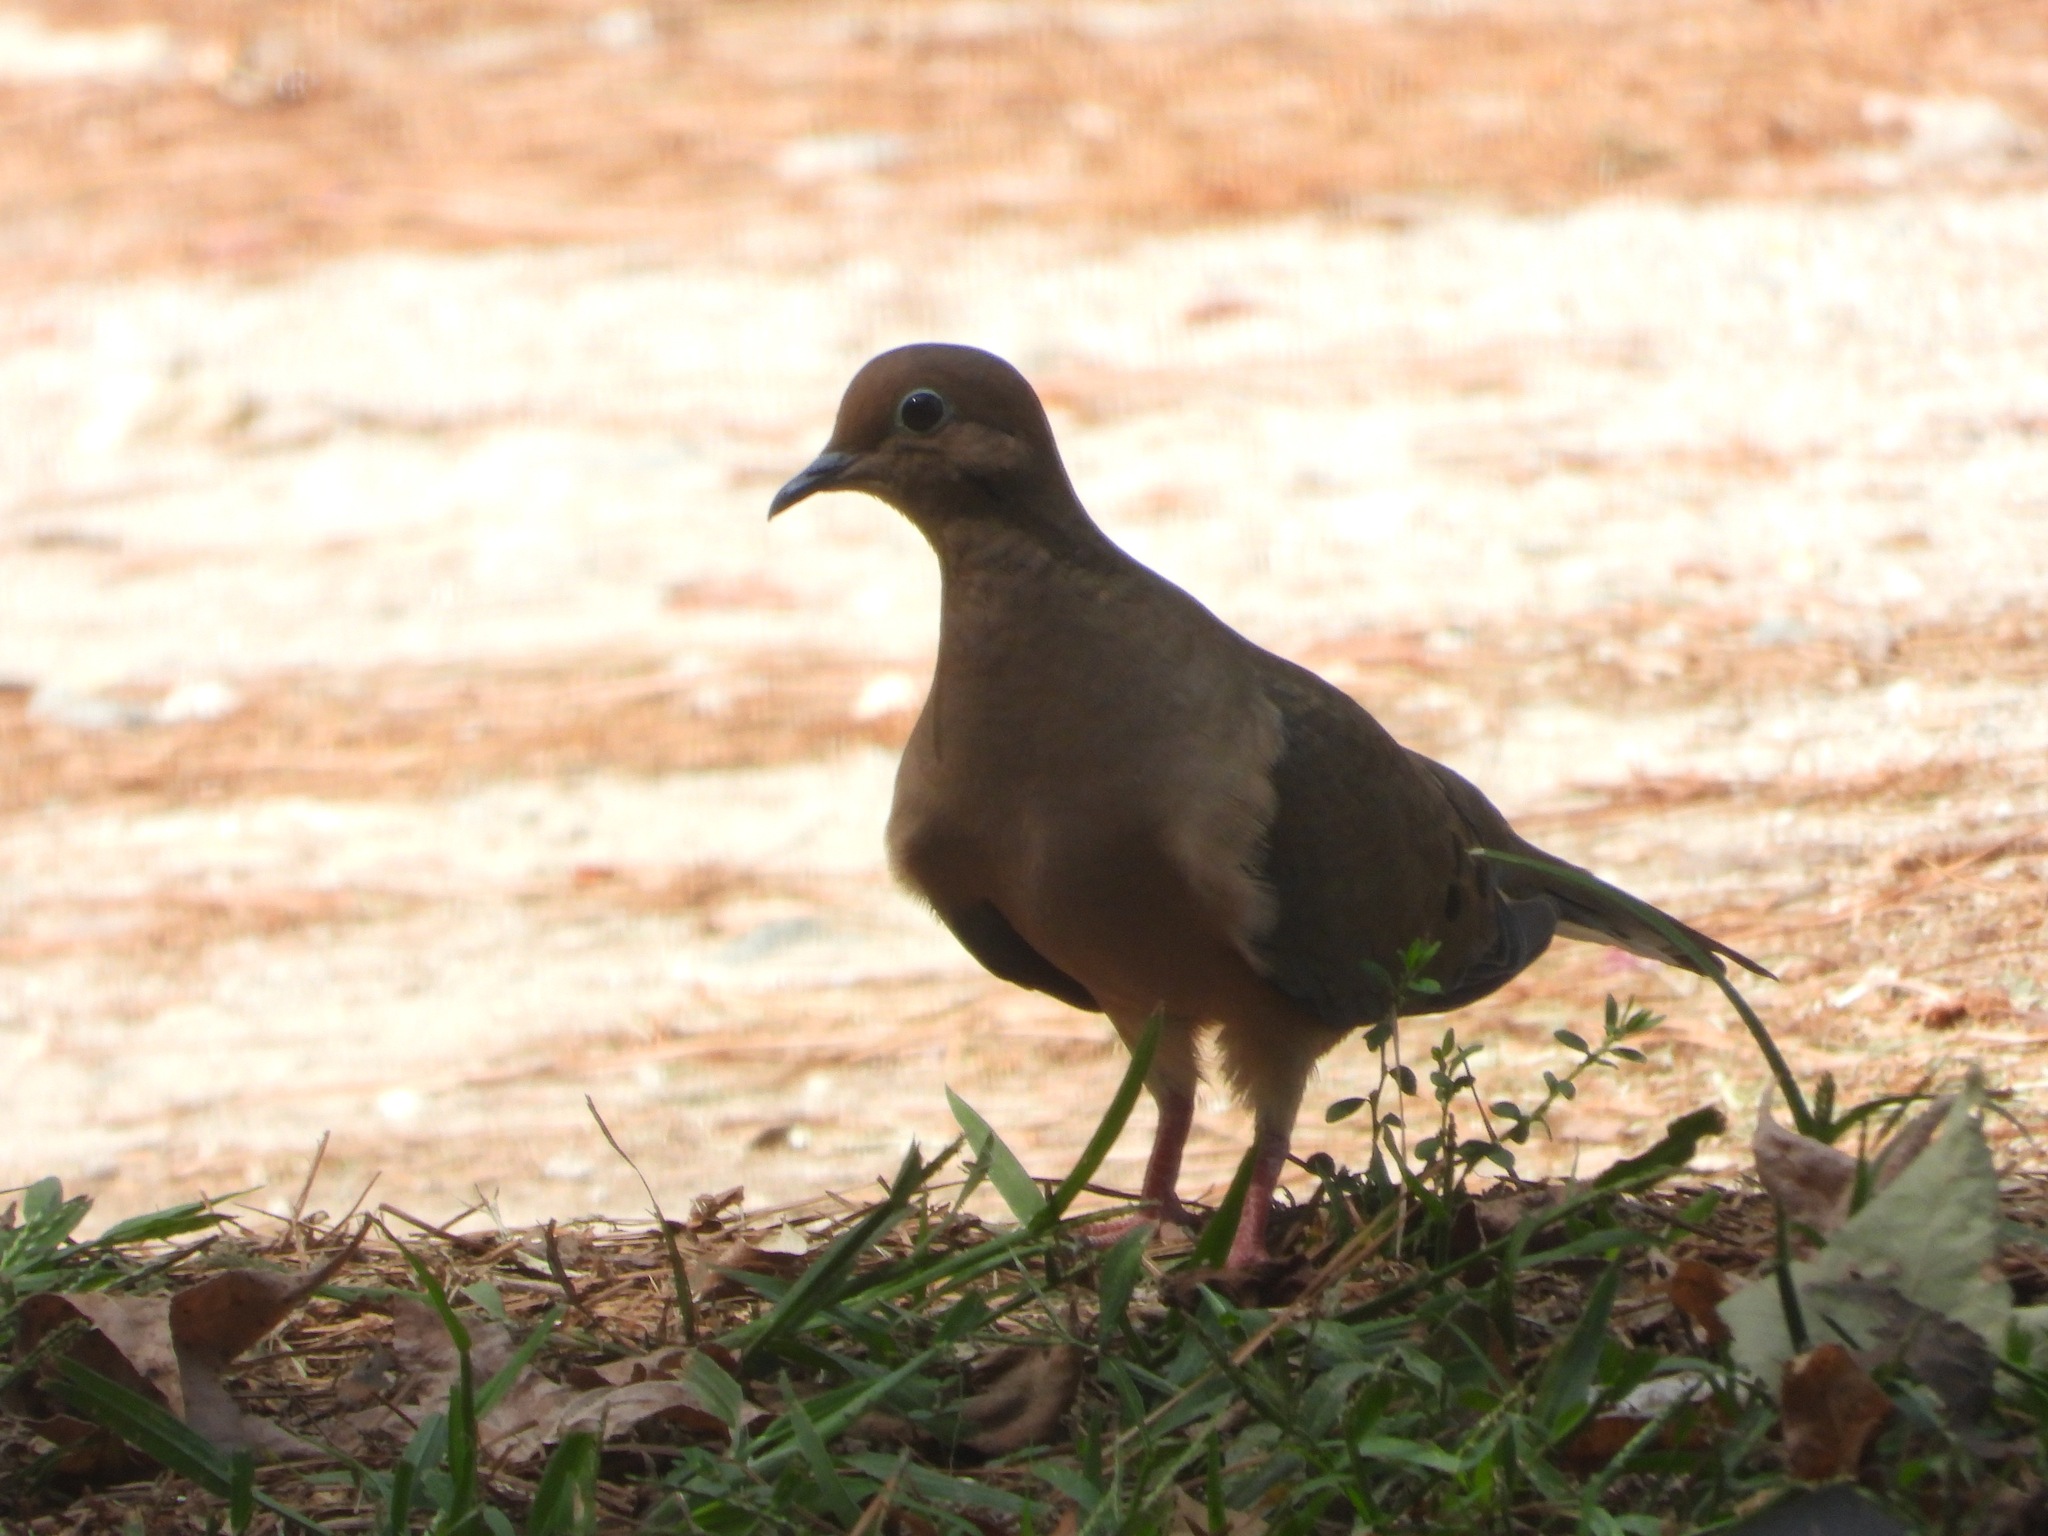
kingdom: Animalia
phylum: Chordata
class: Aves
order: Columbiformes
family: Columbidae
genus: Zenaida
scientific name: Zenaida macroura
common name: Mourning dove
